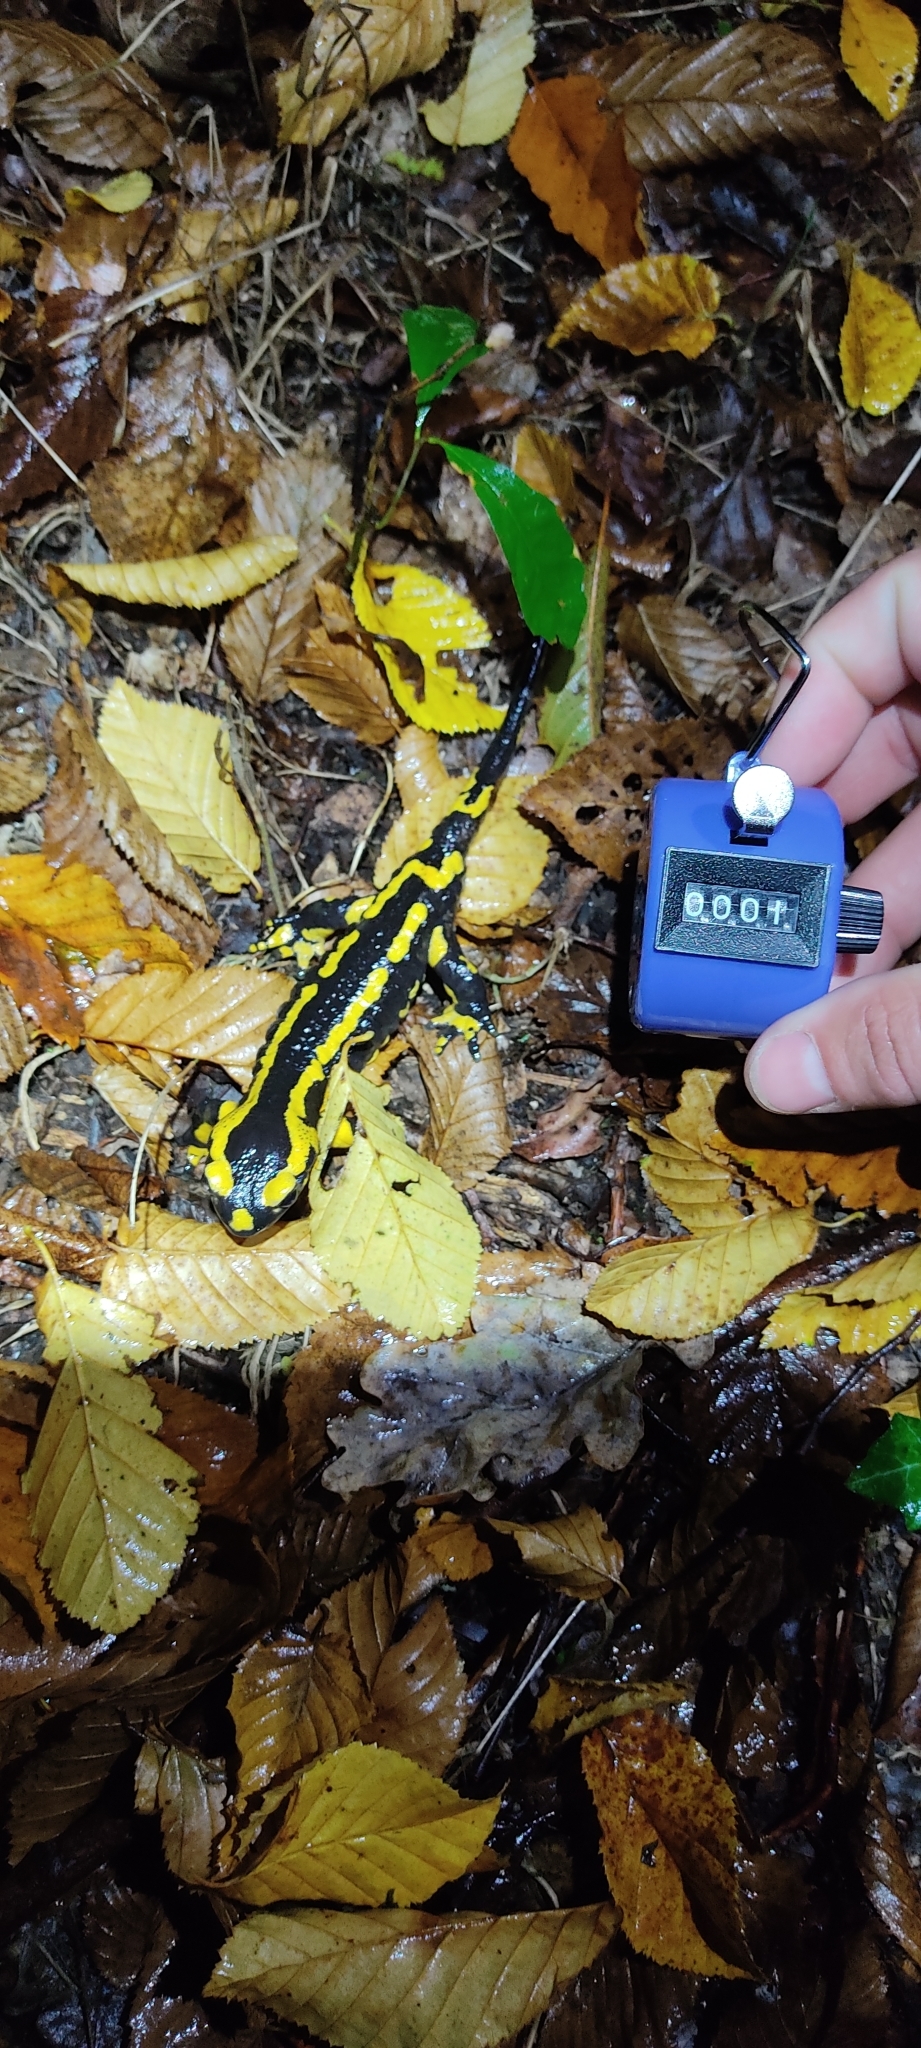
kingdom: Animalia
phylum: Chordata
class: Amphibia
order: Caudata
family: Salamandridae
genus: Salamandra
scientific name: Salamandra salamandra
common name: Fire salamander
